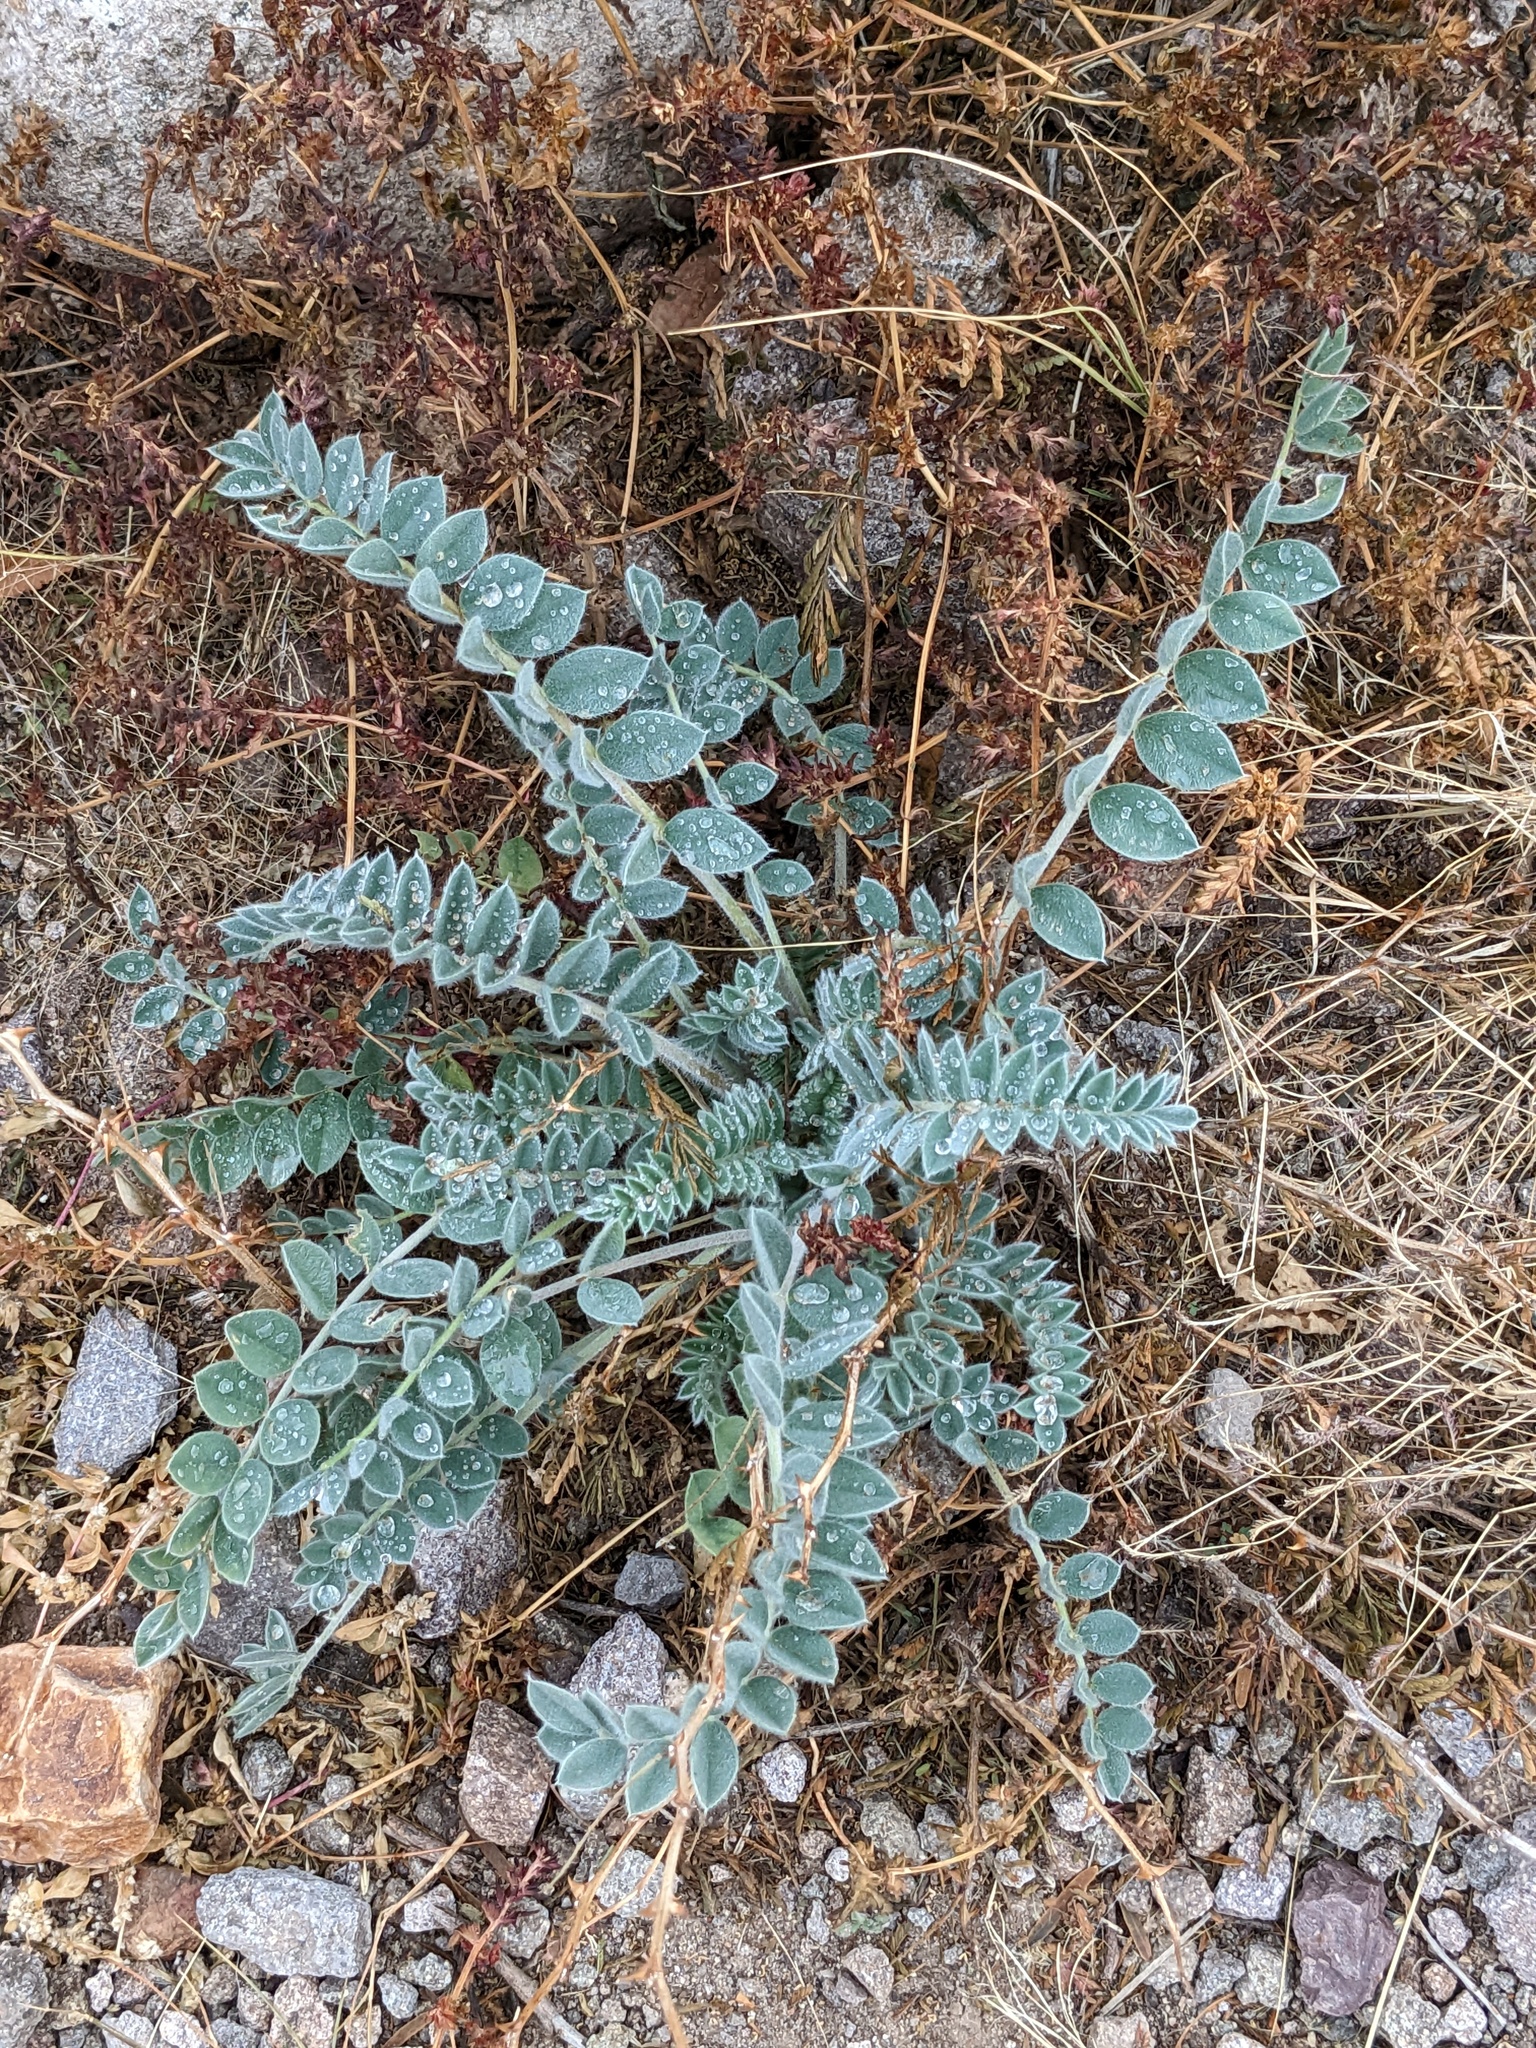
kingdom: Plantae
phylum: Tracheophyta
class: Magnoliopsida
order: Fabales
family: Fabaceae
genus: Astragalus
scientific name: Astragalus mollissimus
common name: Woolly locoweed
